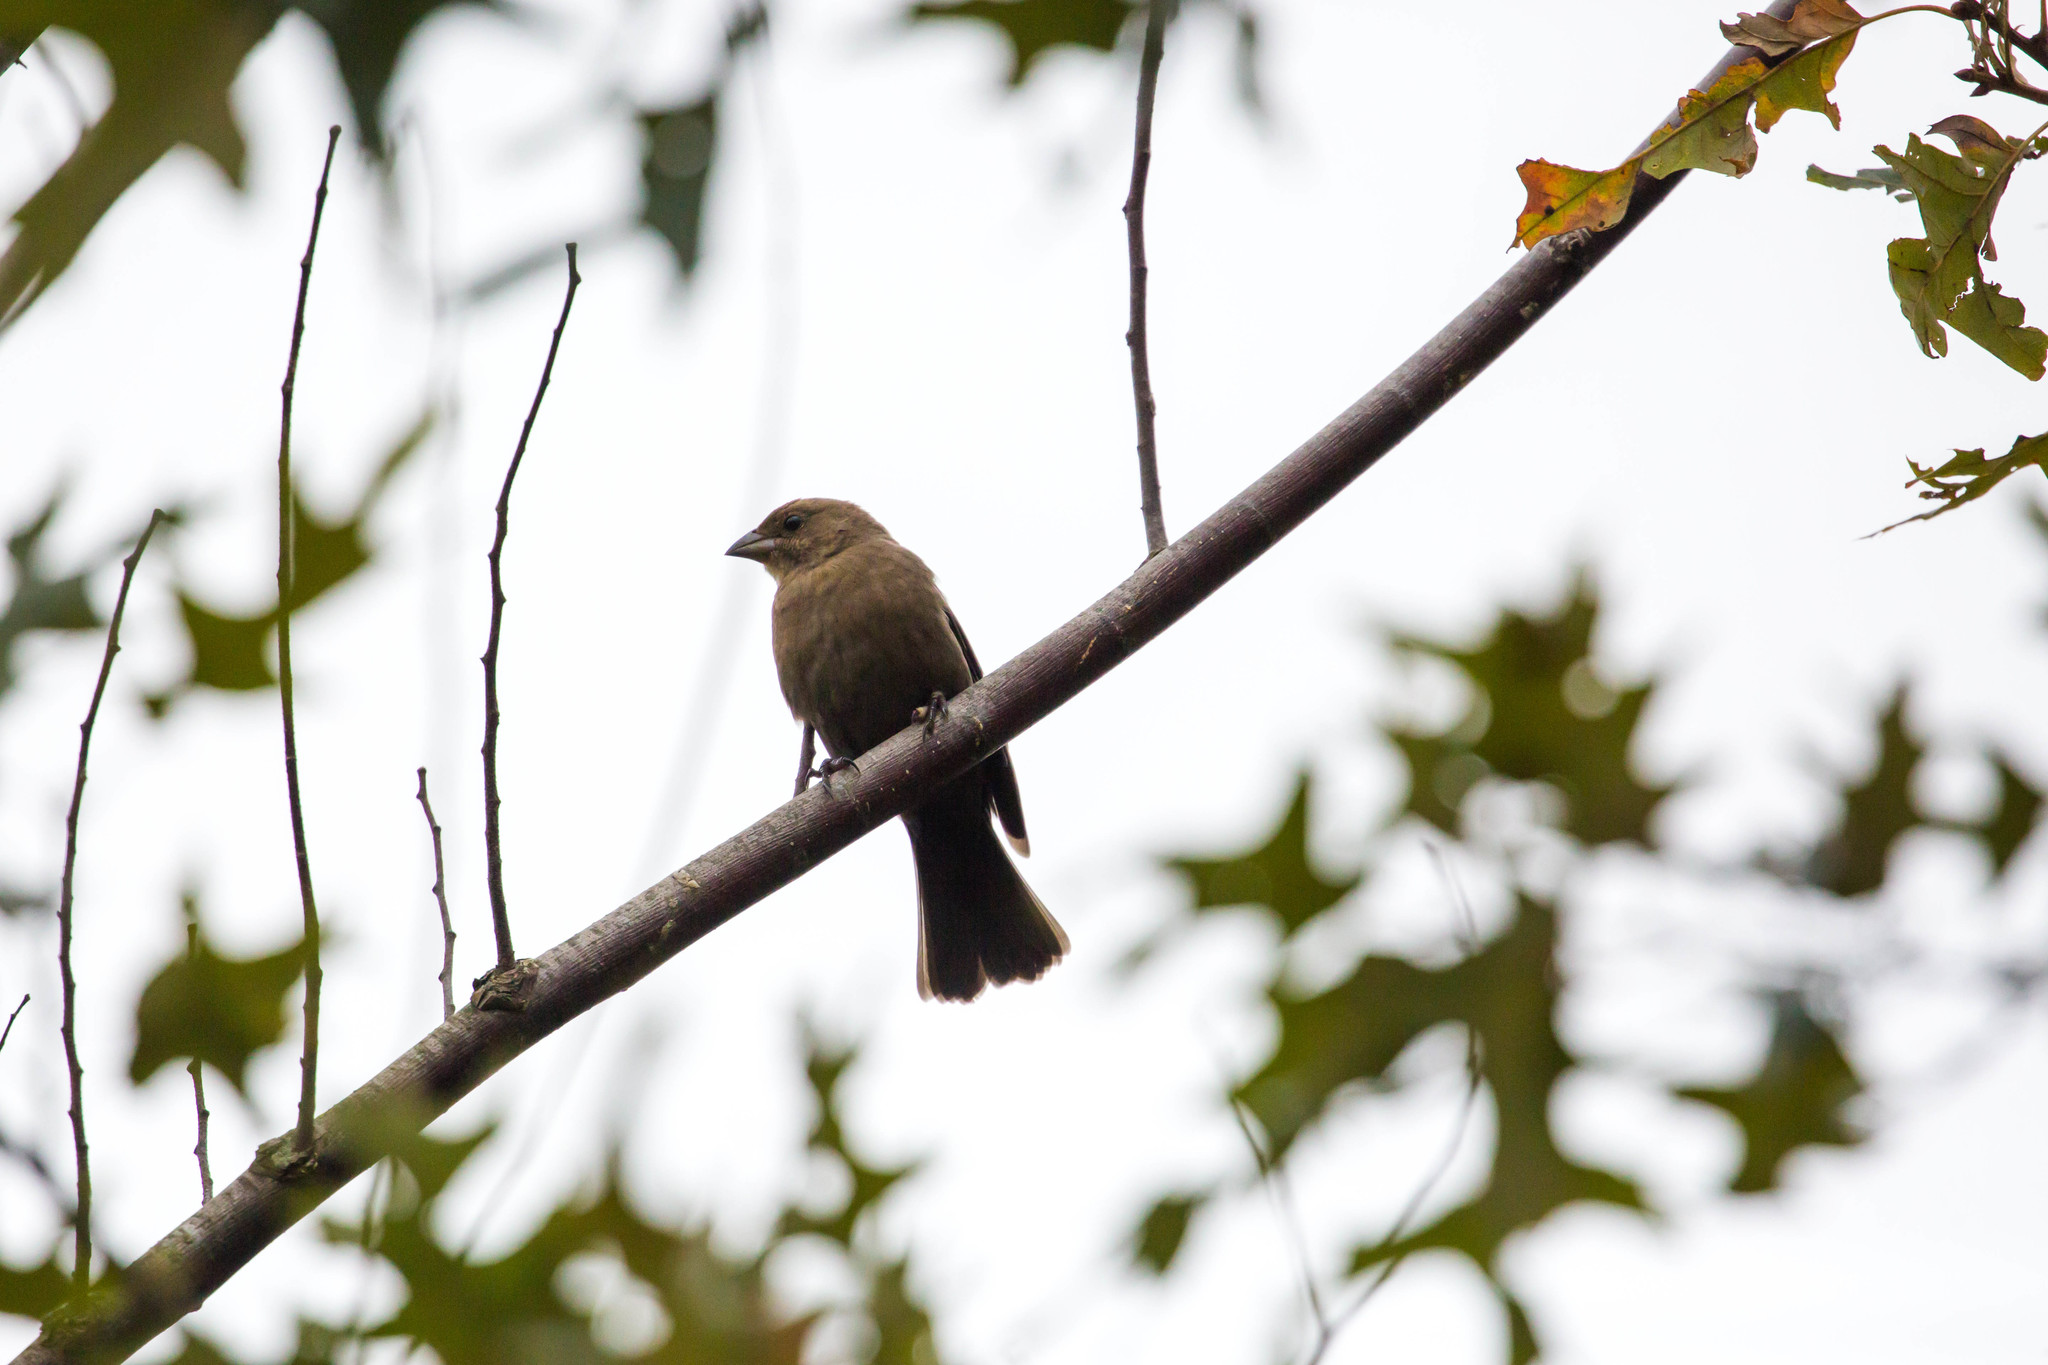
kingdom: Animalia
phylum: Chordata
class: Aves
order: Passeriformes
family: Icteridae
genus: Molothrus
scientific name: Molothrus ater
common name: Brown-headed cowbird
